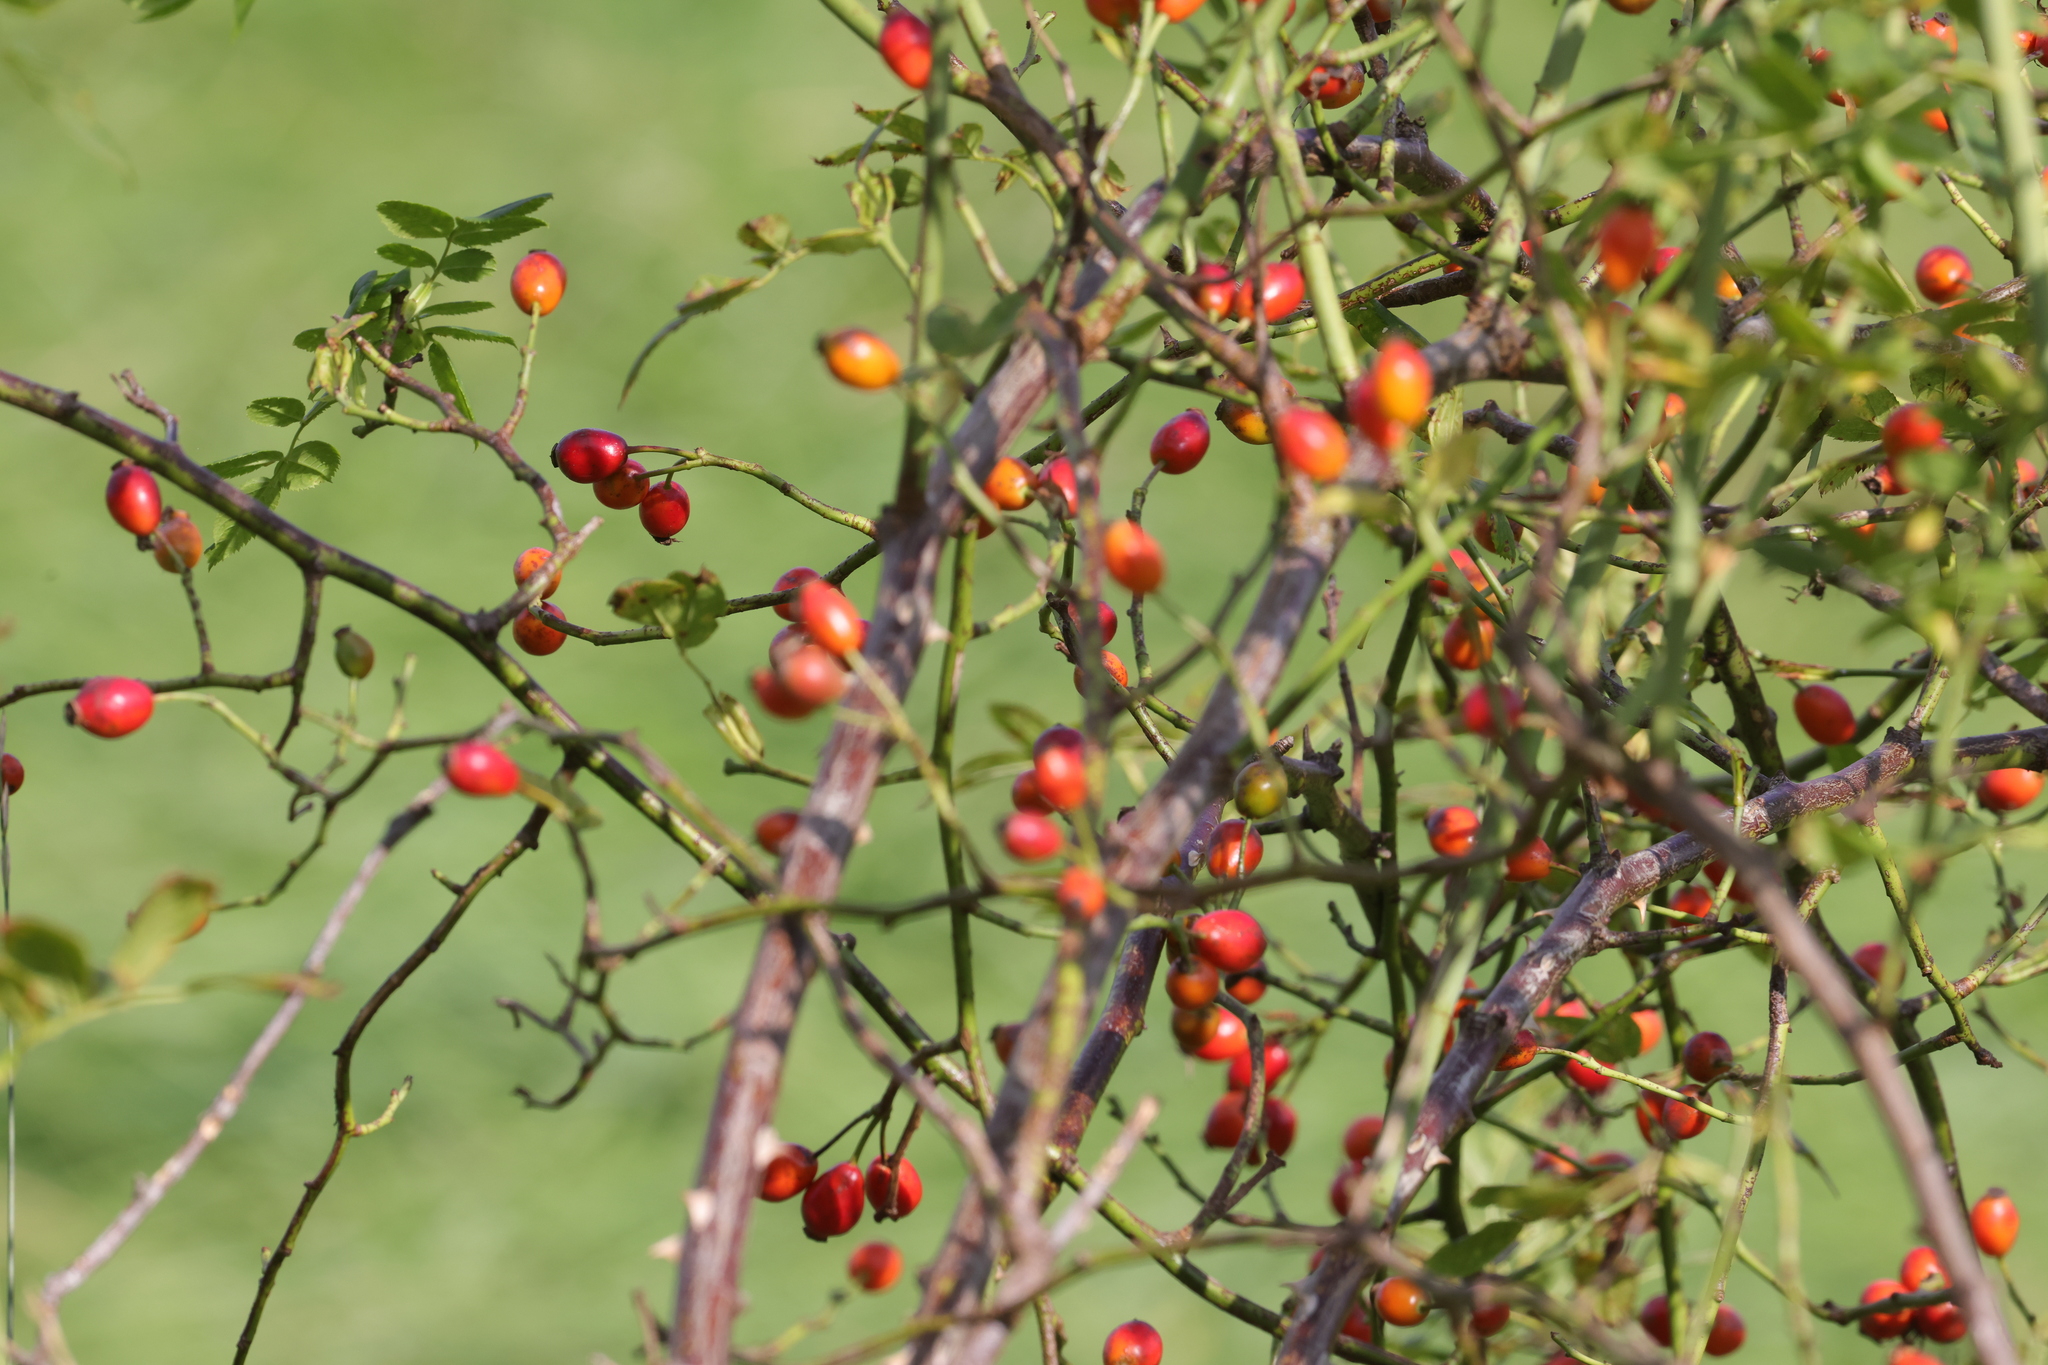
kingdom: Plantae
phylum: Tracheophyta
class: Magnoliopsida
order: Rosales
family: Rosaceae
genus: Rosa
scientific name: Rosa canina
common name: Dog rose
